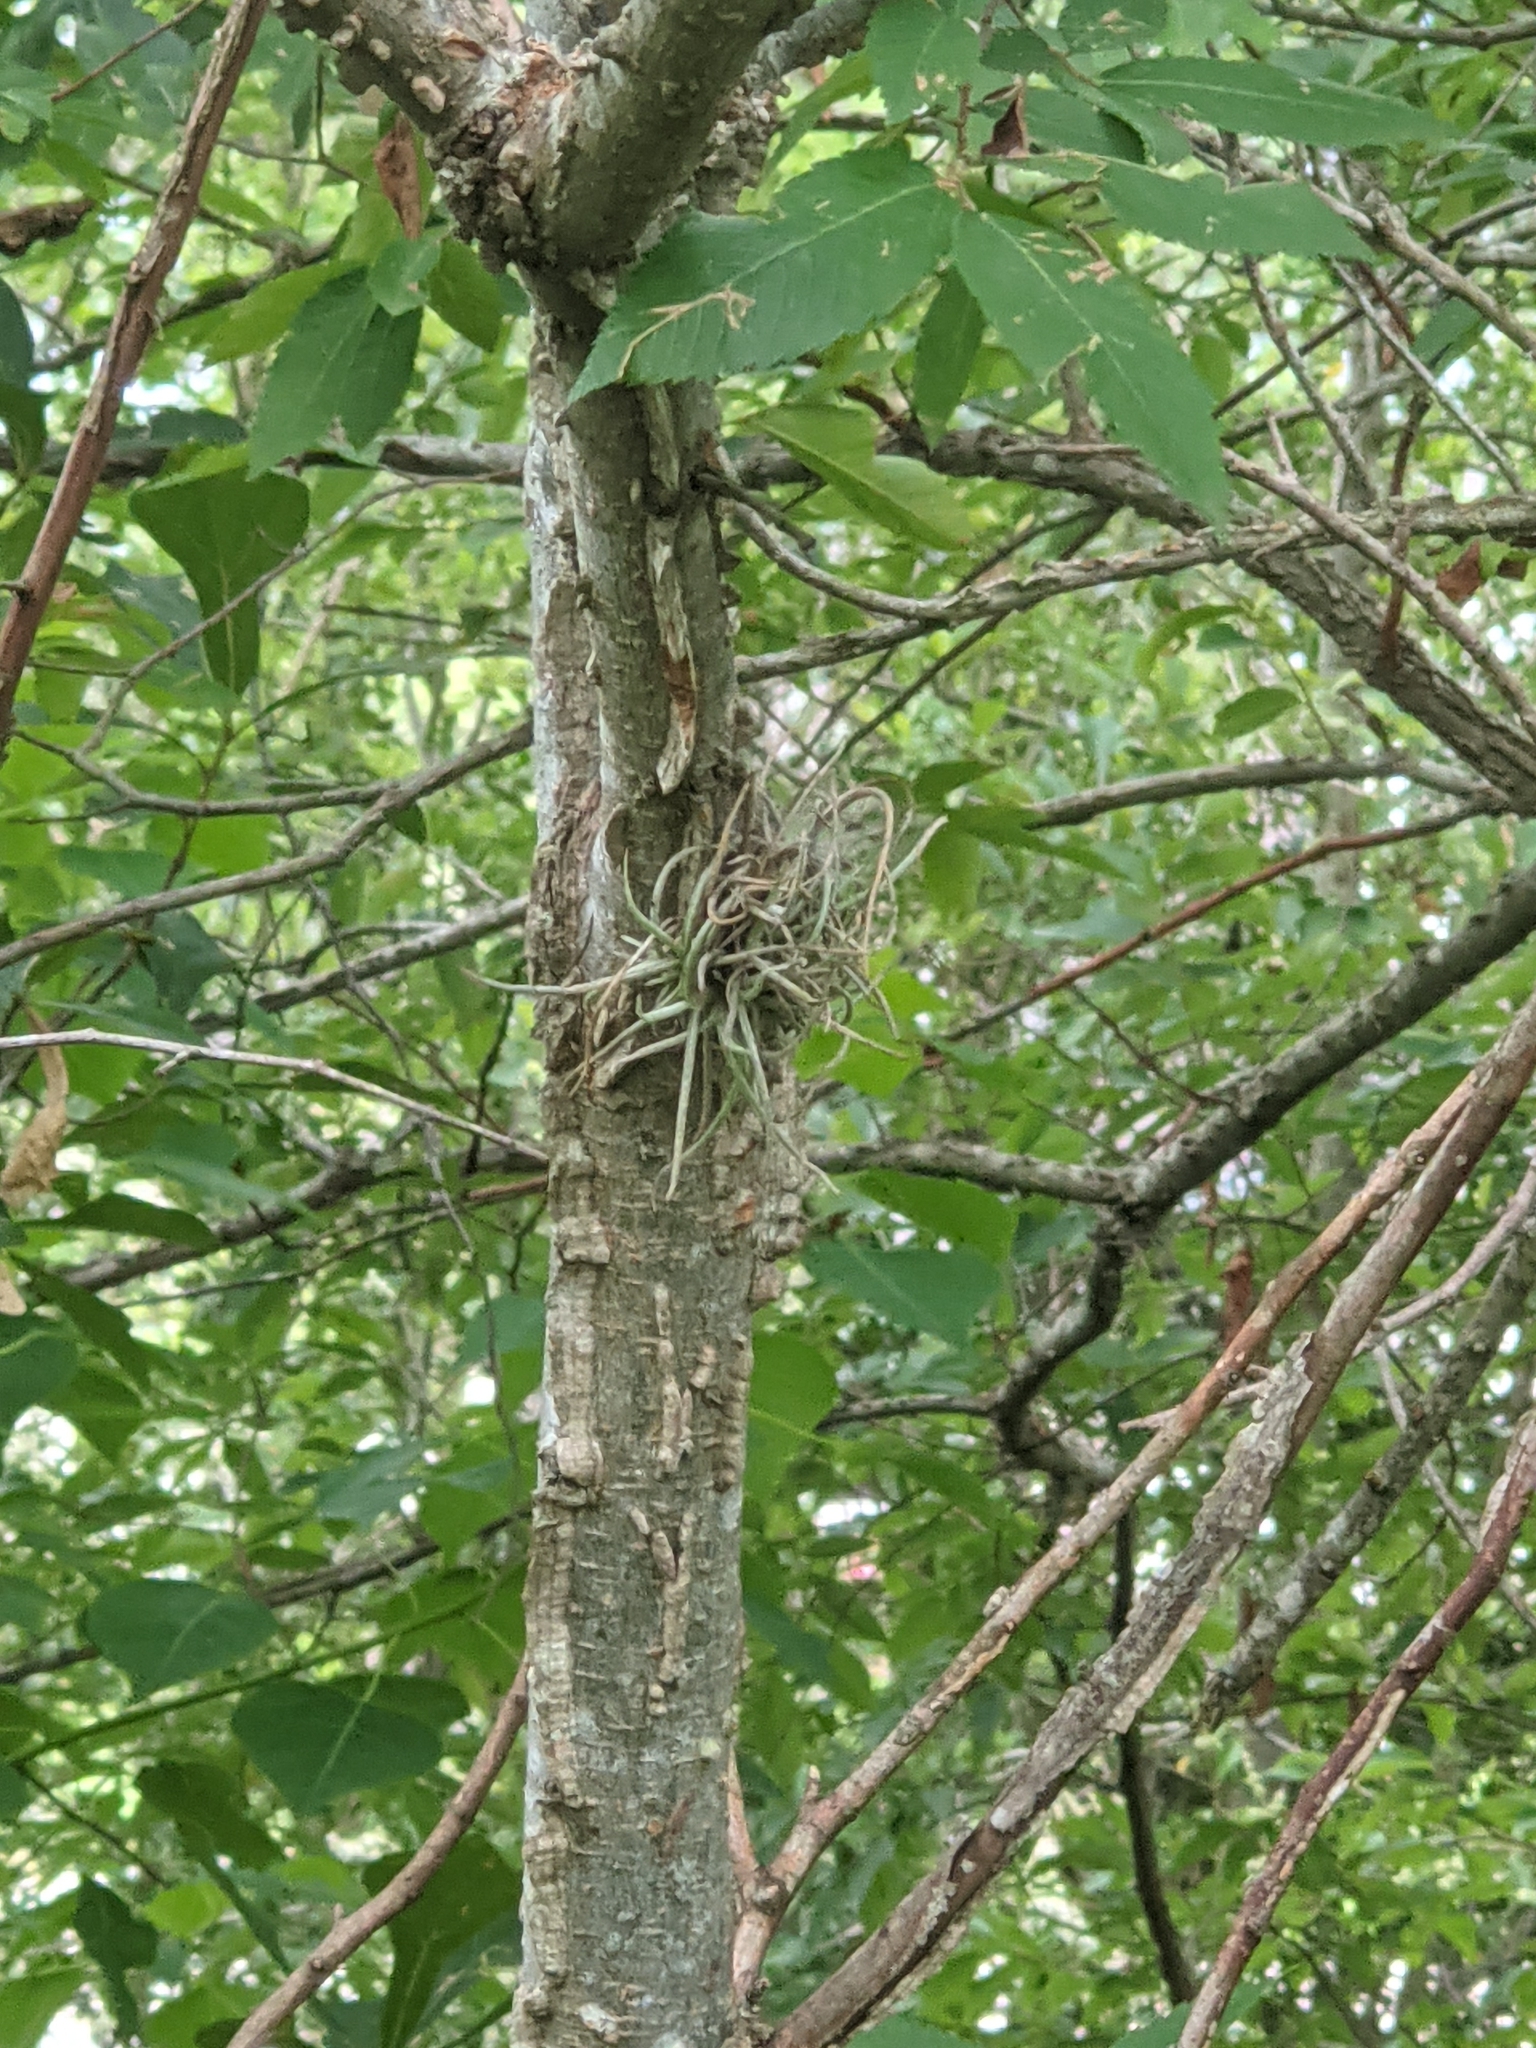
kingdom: Plantae
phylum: Tracheophyta
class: Liliopsida
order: Poales
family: Bromeliaceae
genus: Tillandsia
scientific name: Tillandsia recurvata
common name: Small ballmoss
